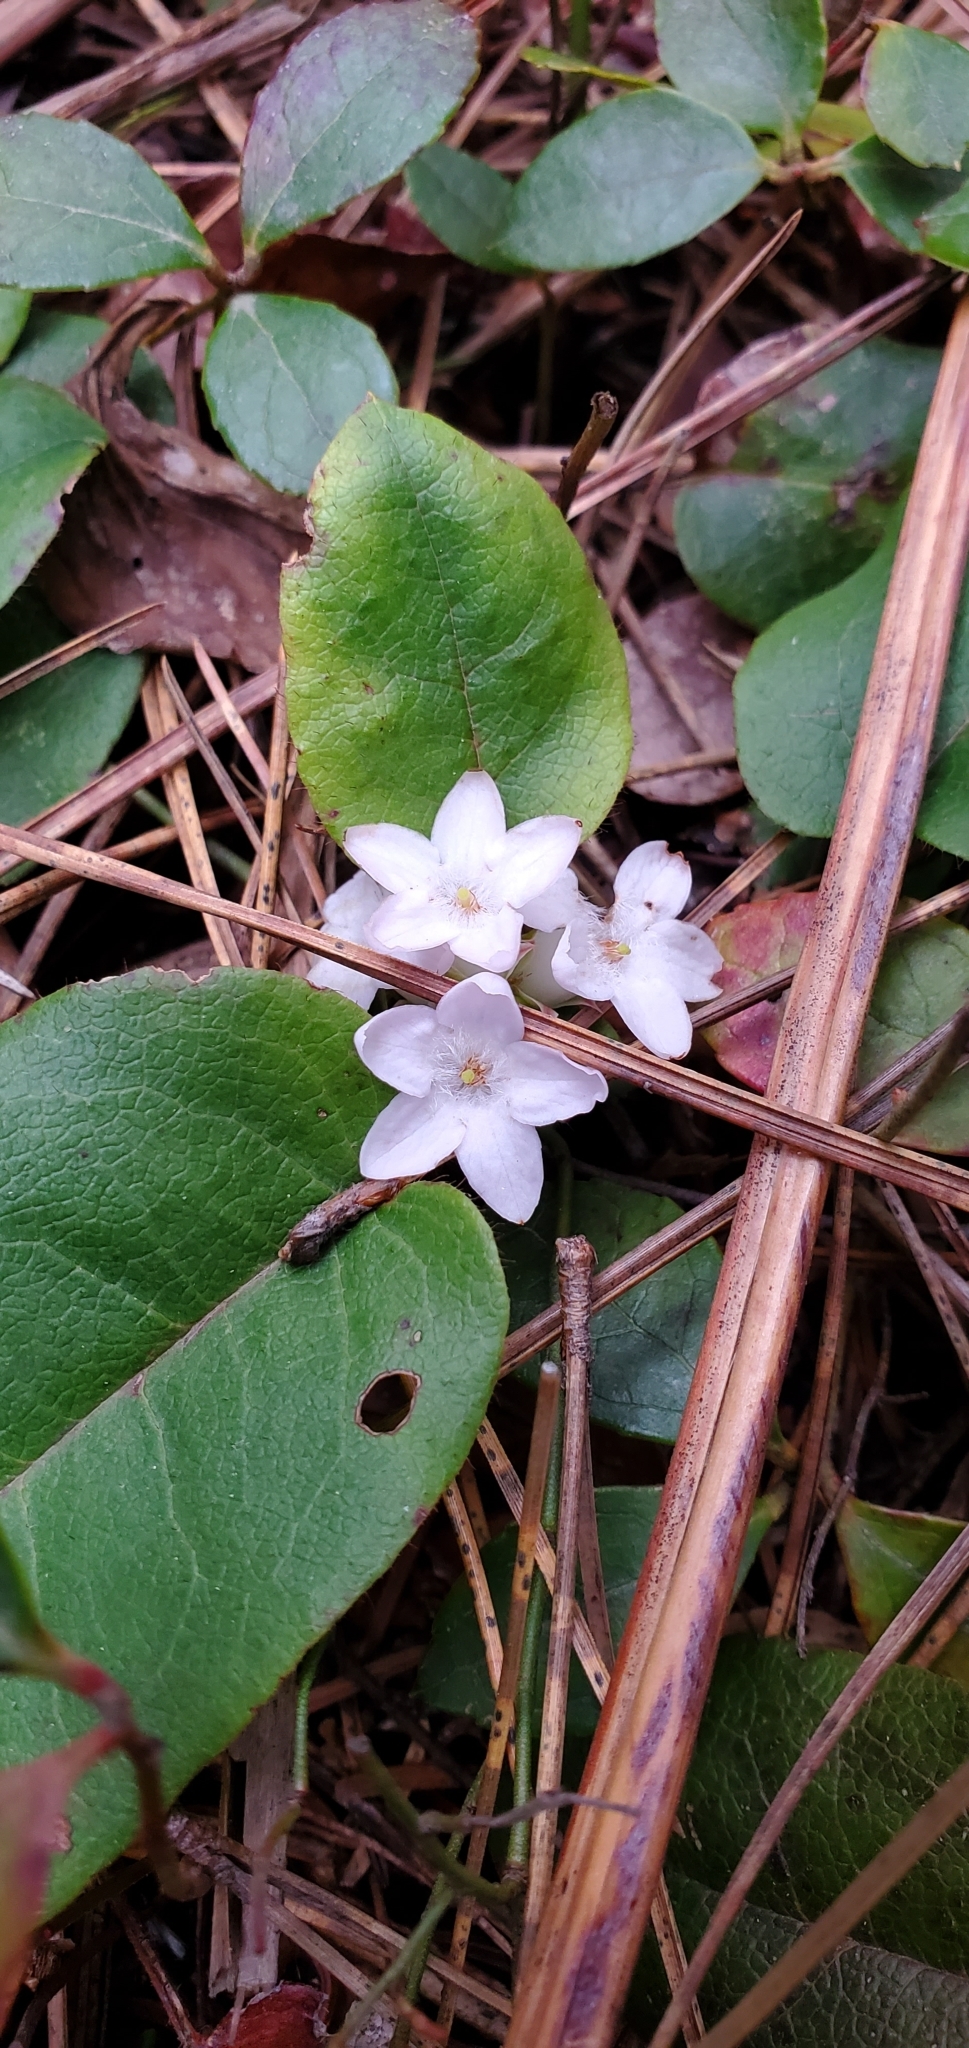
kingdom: Plantae
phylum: Tracheophyta
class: Magnoliopsida
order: Ericales
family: Ericaceae
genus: Epigaea
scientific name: Epigaea repens
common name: Gravelroot
